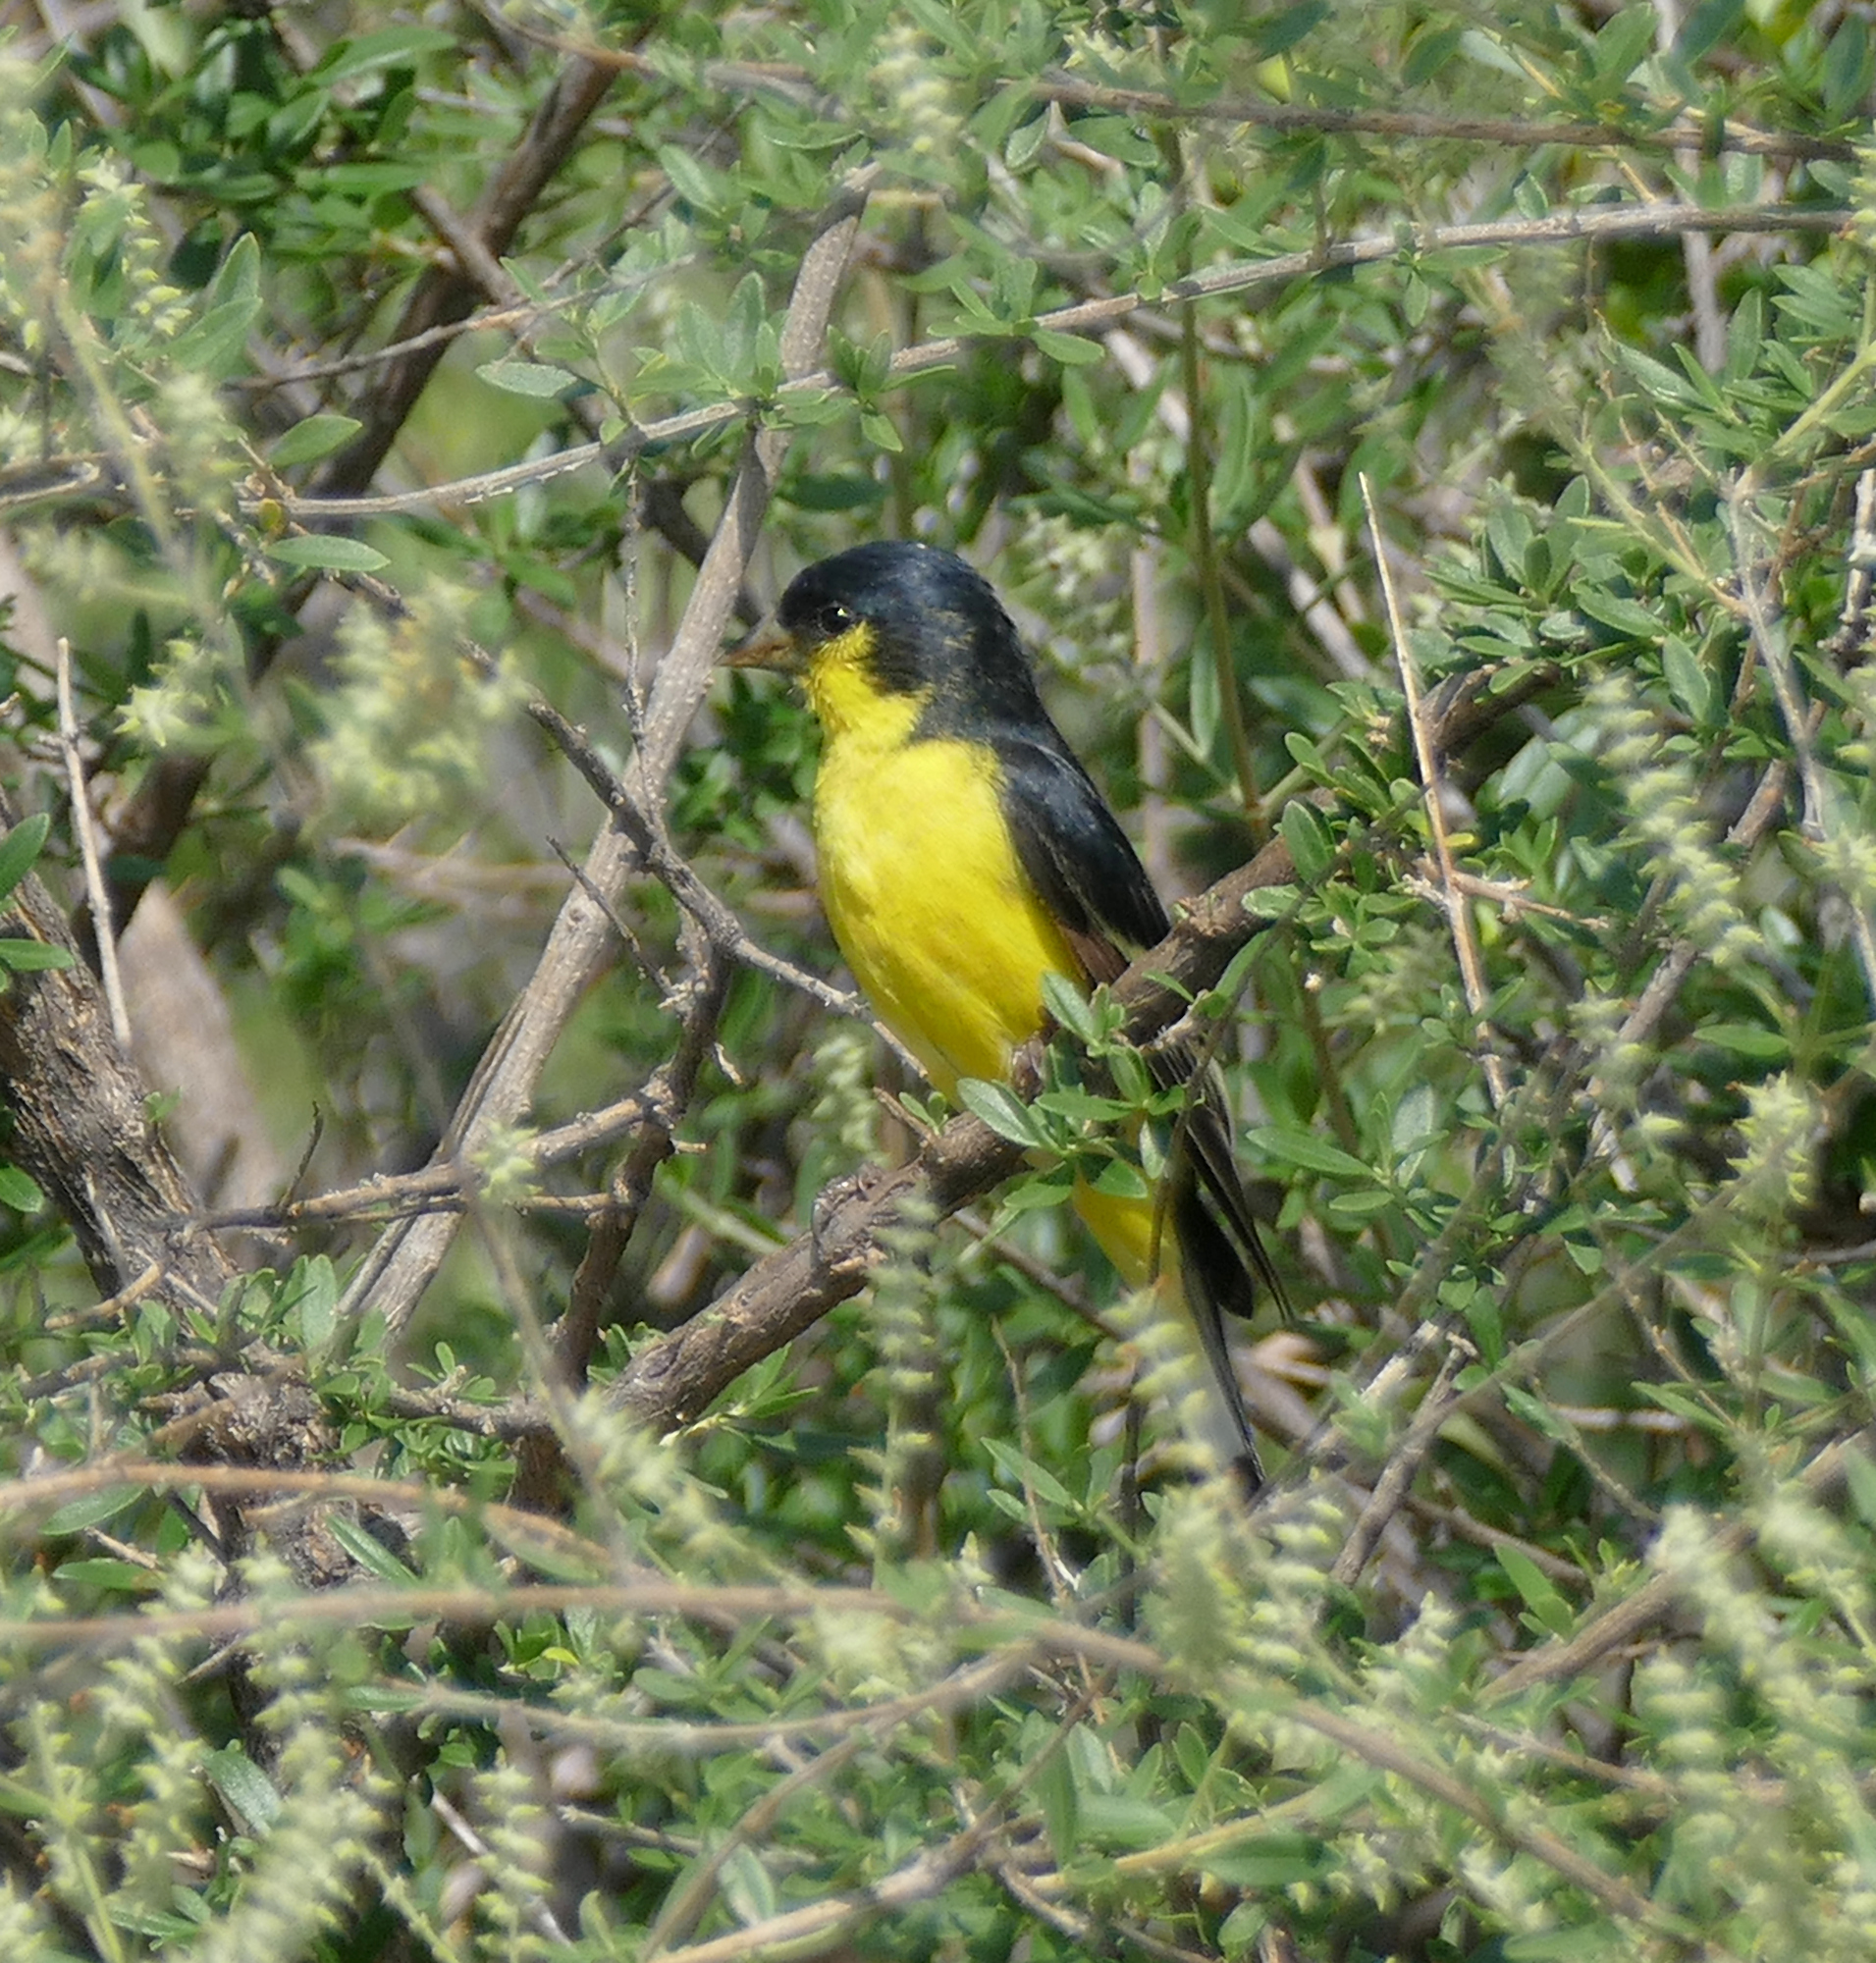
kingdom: Animalia
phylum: Chordata
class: Aves
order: Passeriformes
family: Fringillidae
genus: Spinus
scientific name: Spinus psaltria
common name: Lesser goldfinch
